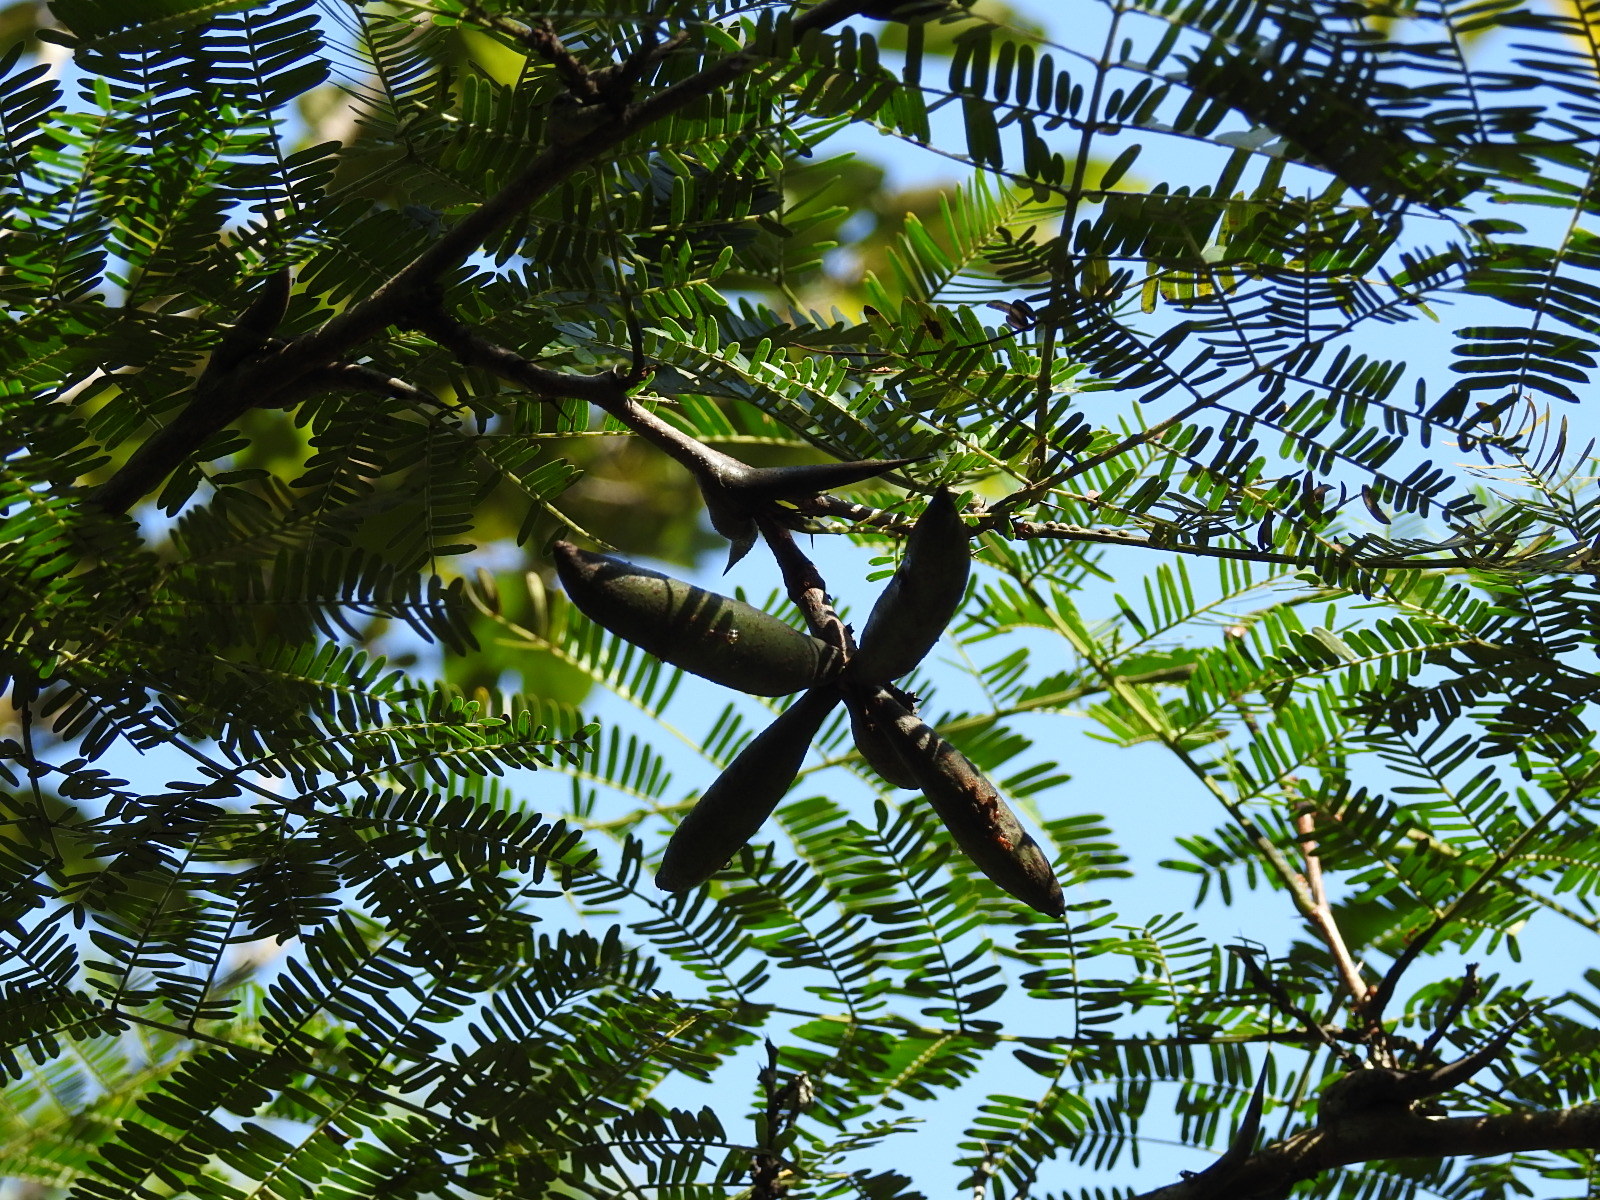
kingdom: Plantae
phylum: Tracheophyta
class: Magnoliopsida
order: Fabales
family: Fabaceae
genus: Vachellia
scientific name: Vachellia cornigera
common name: Bullhorn wattle
